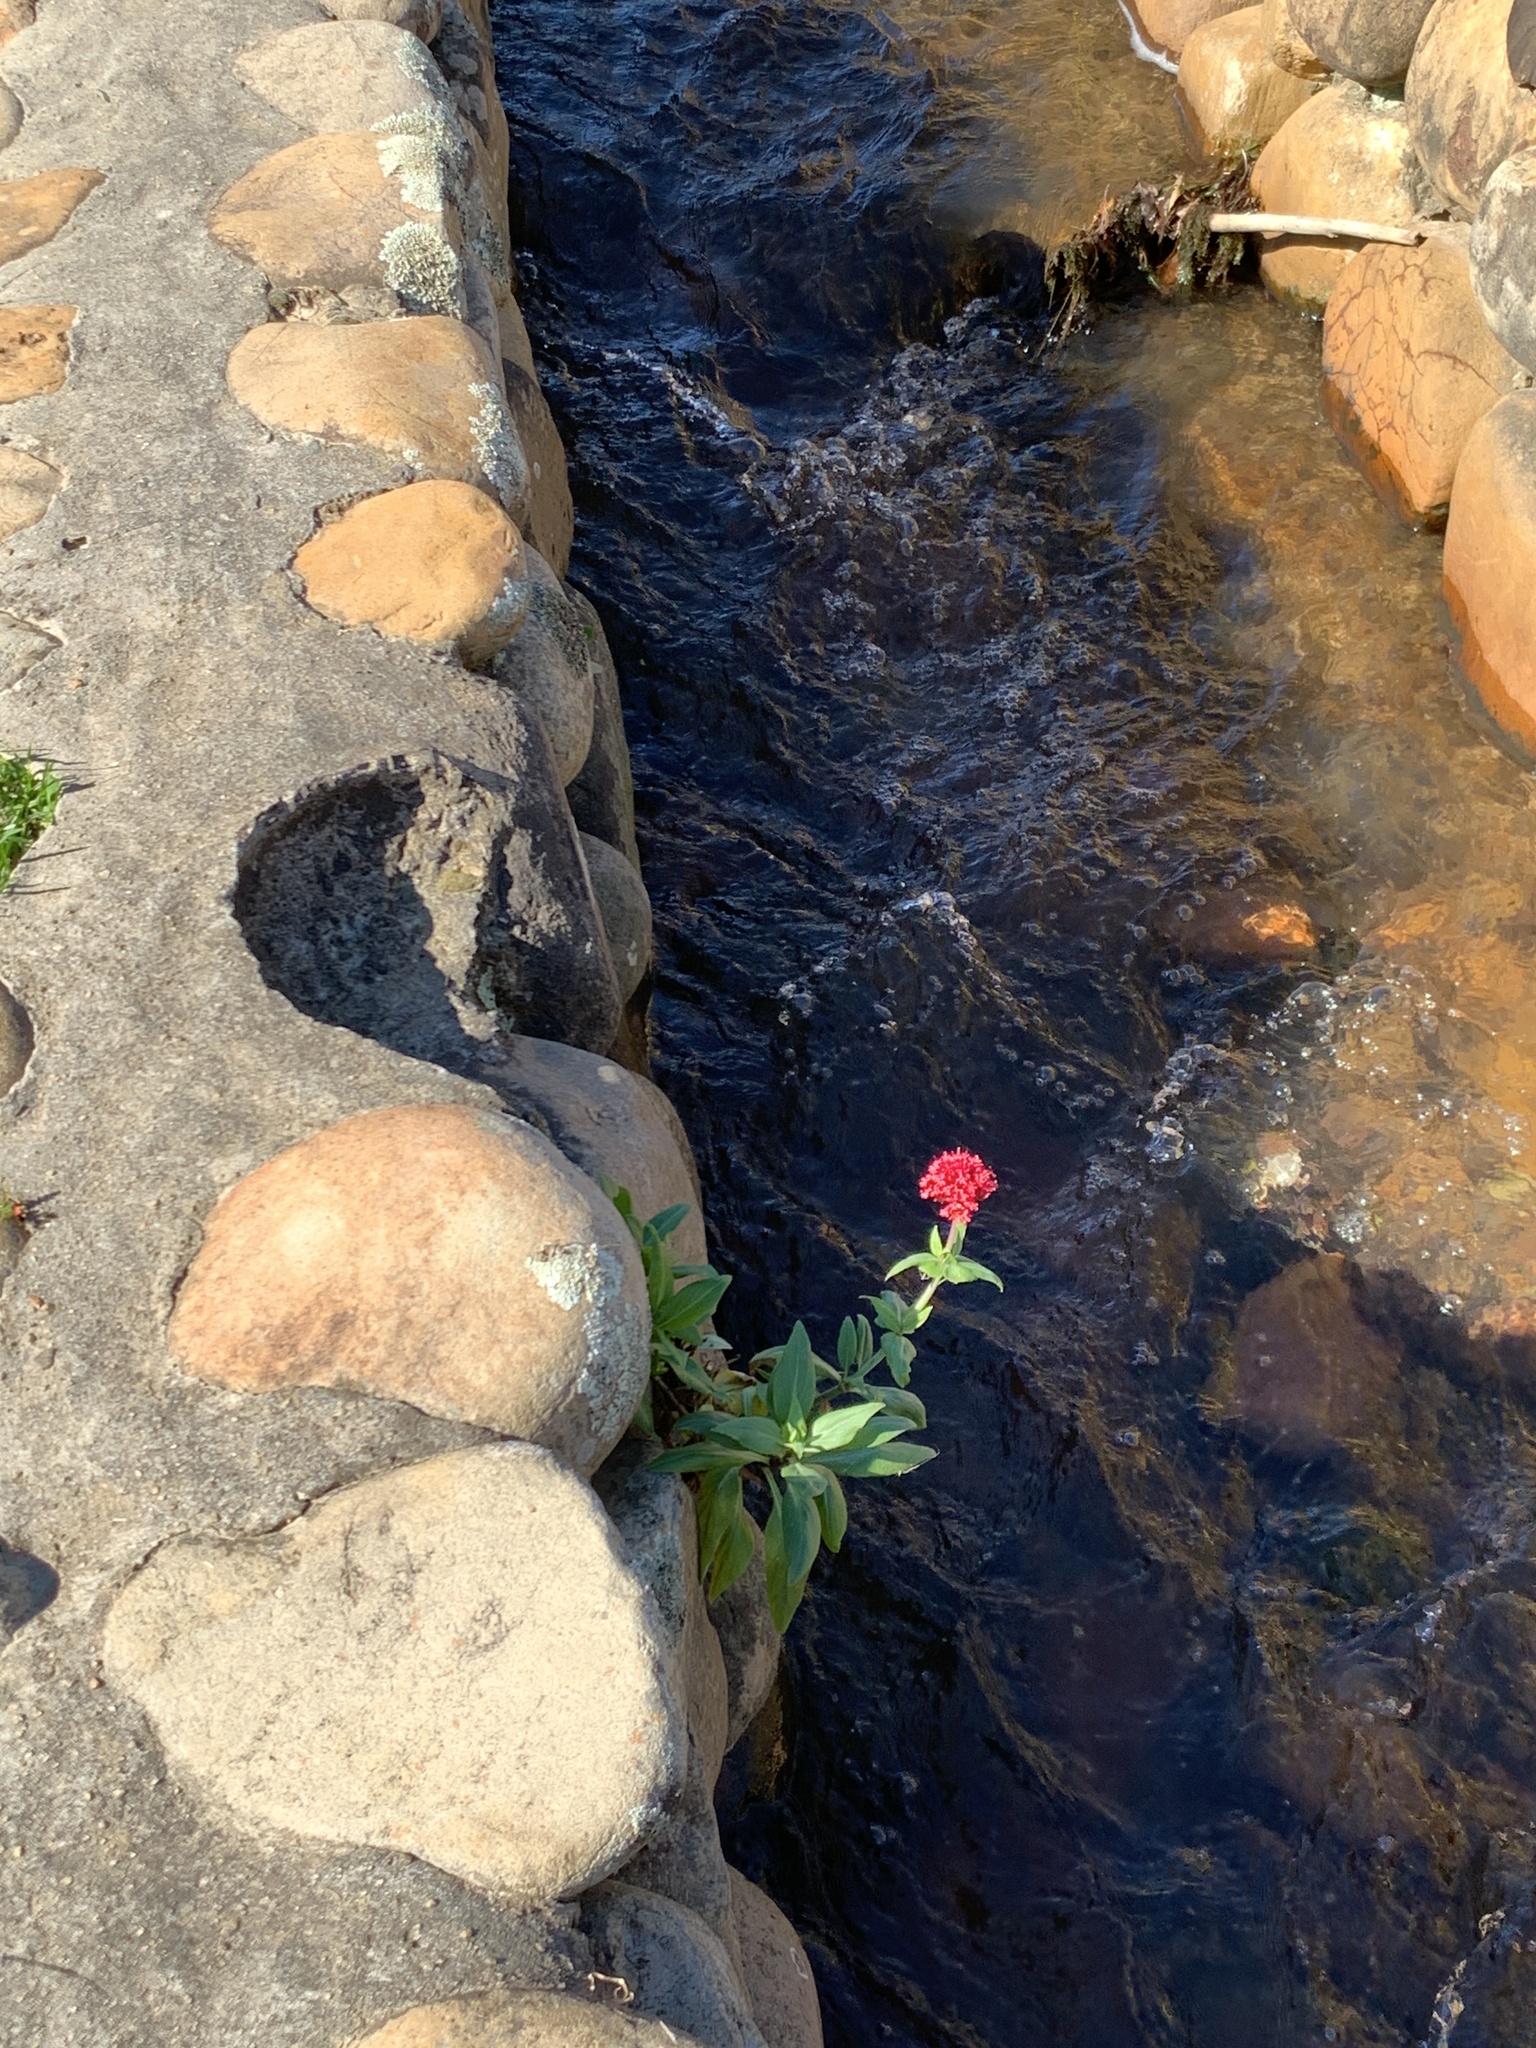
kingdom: Plantae
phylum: Tracheophyta
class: Magnoliopsida
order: Dipsacales
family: Caprifoliaceae
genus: Centranthus
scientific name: Centranthus ruber
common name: Red valerian
